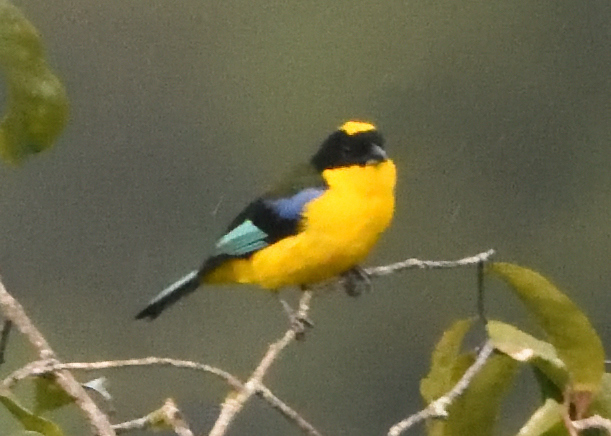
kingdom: Animalia
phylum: Chordata
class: Aves
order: Passeriformes
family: Thraupidae
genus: Anisognathus
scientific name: Anisognathus somptuosus
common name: Blue-winged mountain-tanager
